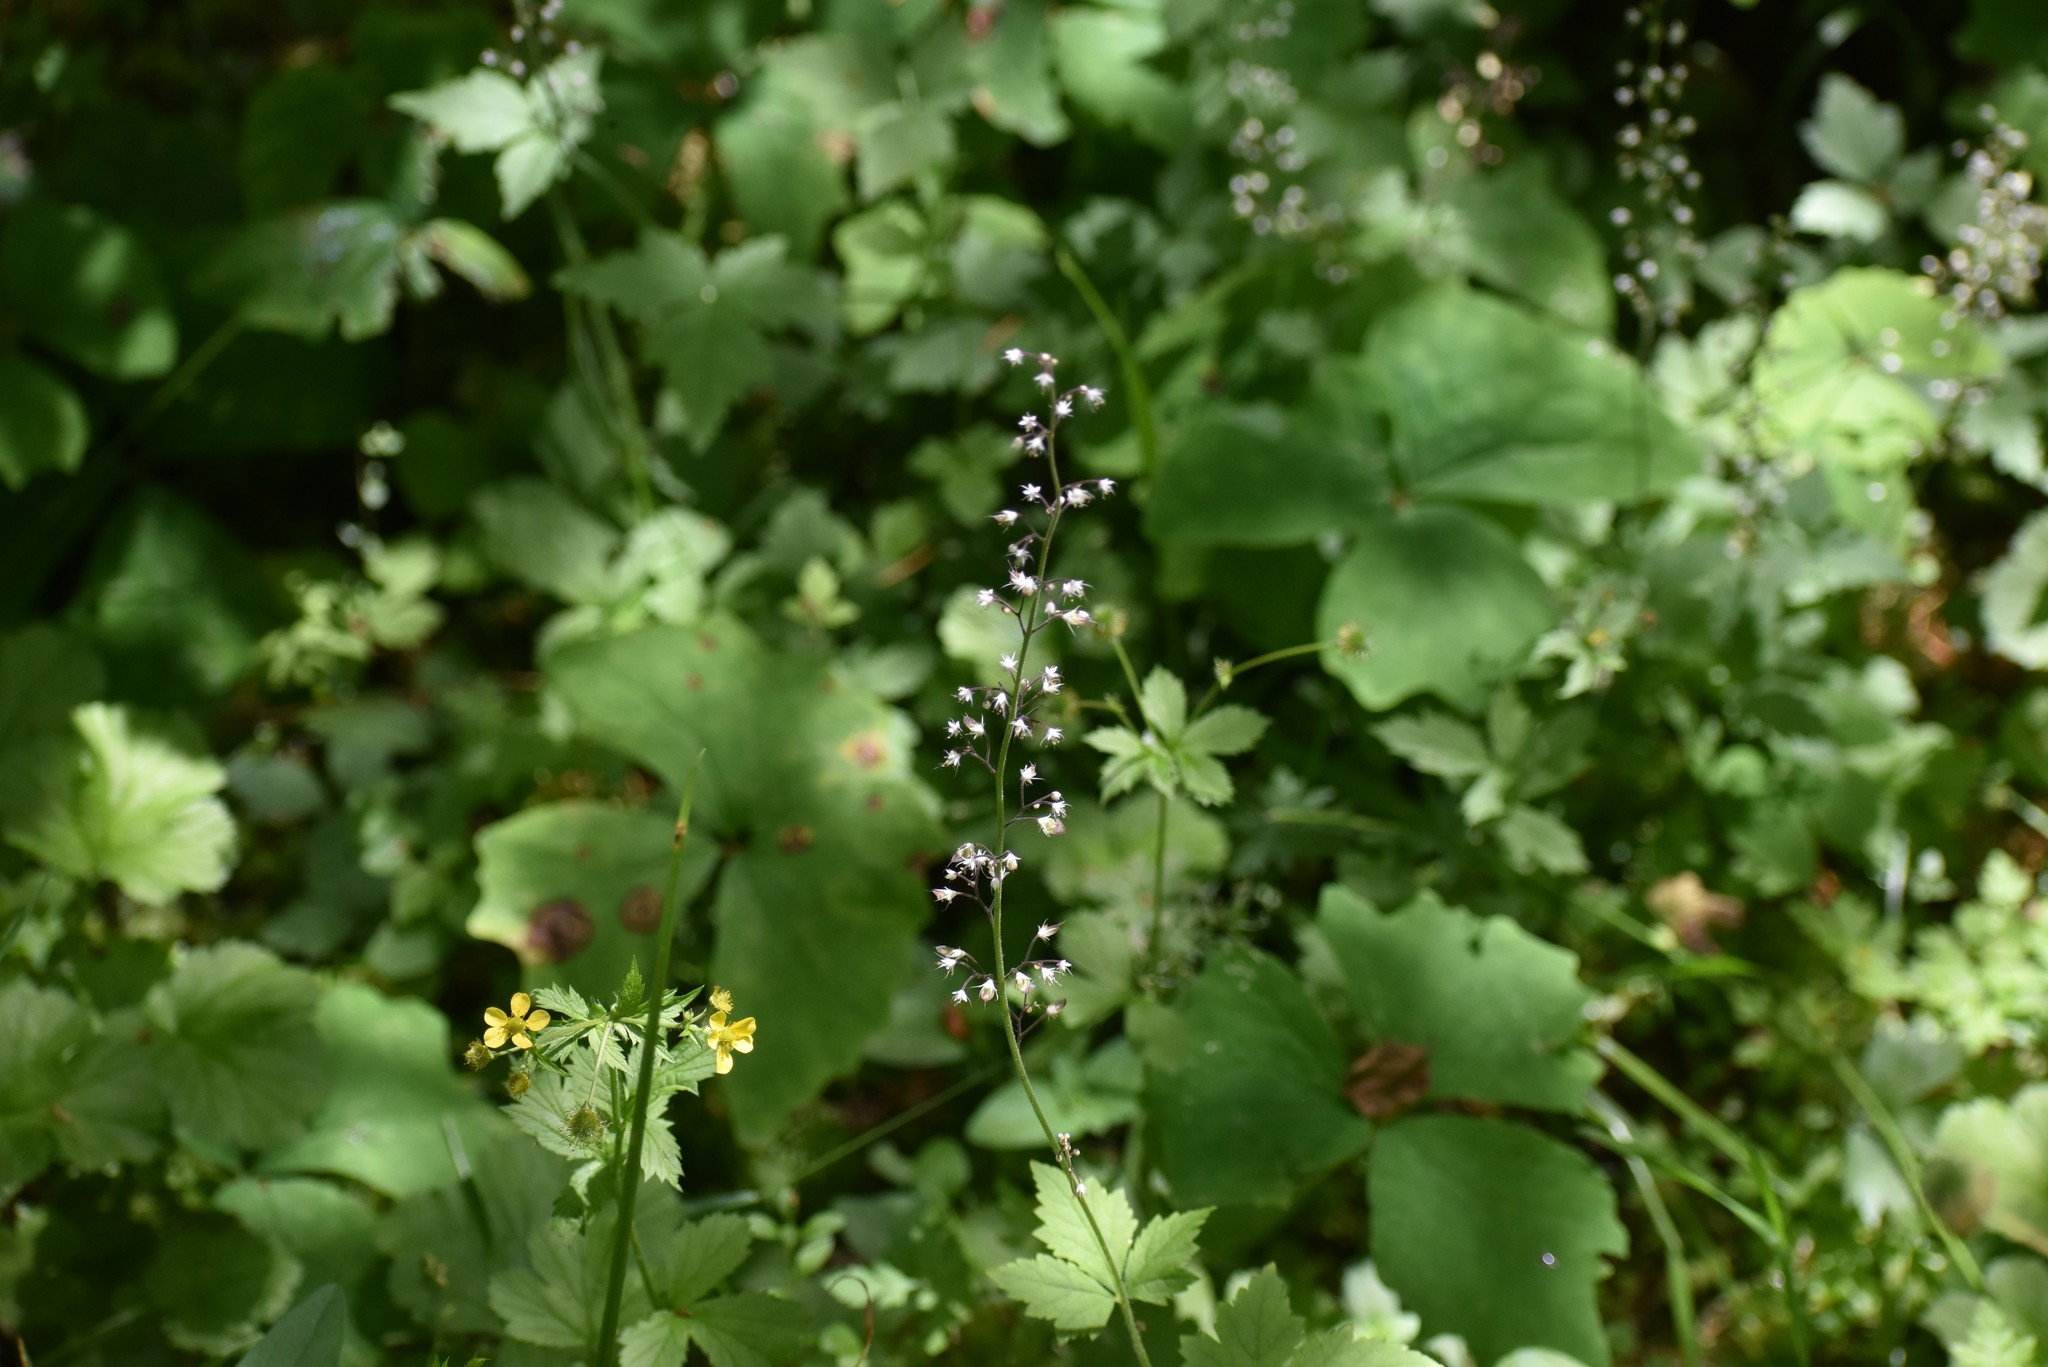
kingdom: Plantae
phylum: Tracheophyta
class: Magnoliopsida
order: Saxifragales
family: Saxifragaceae
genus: Tiarella
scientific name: Tiarella trifoliata
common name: Sugar-scoop
